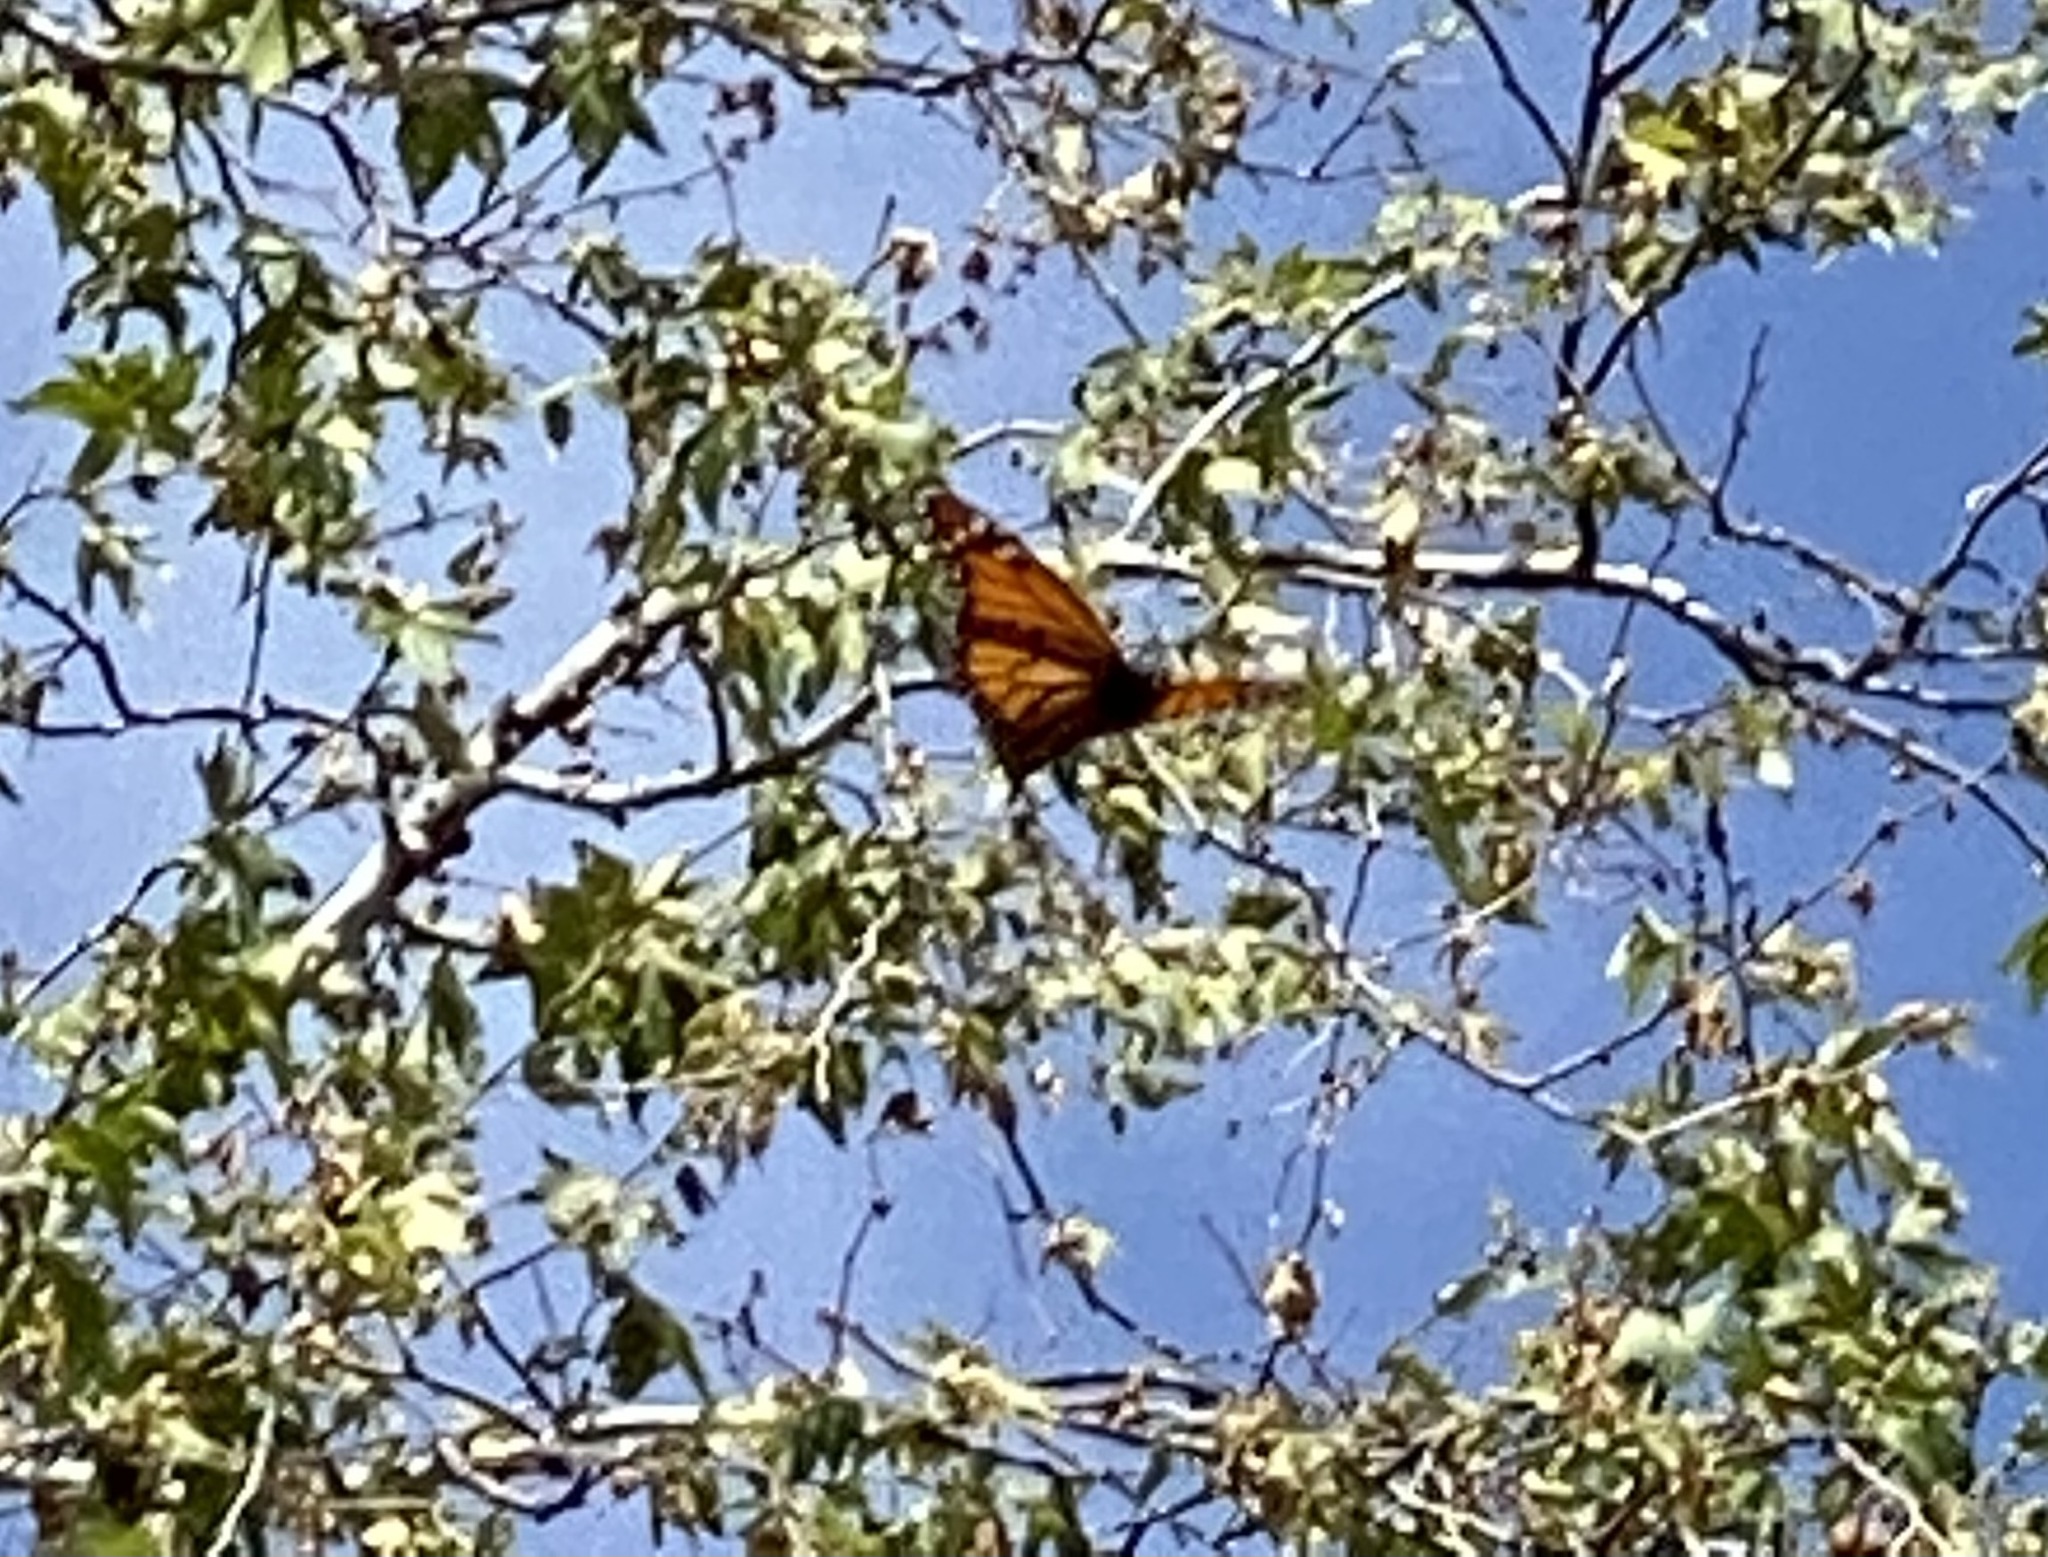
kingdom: Animalia
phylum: Arthropoda
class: Insecta
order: Lepidoptera
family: Nymphalidae
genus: Danaus
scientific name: Danaus plexippus
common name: Monarch
